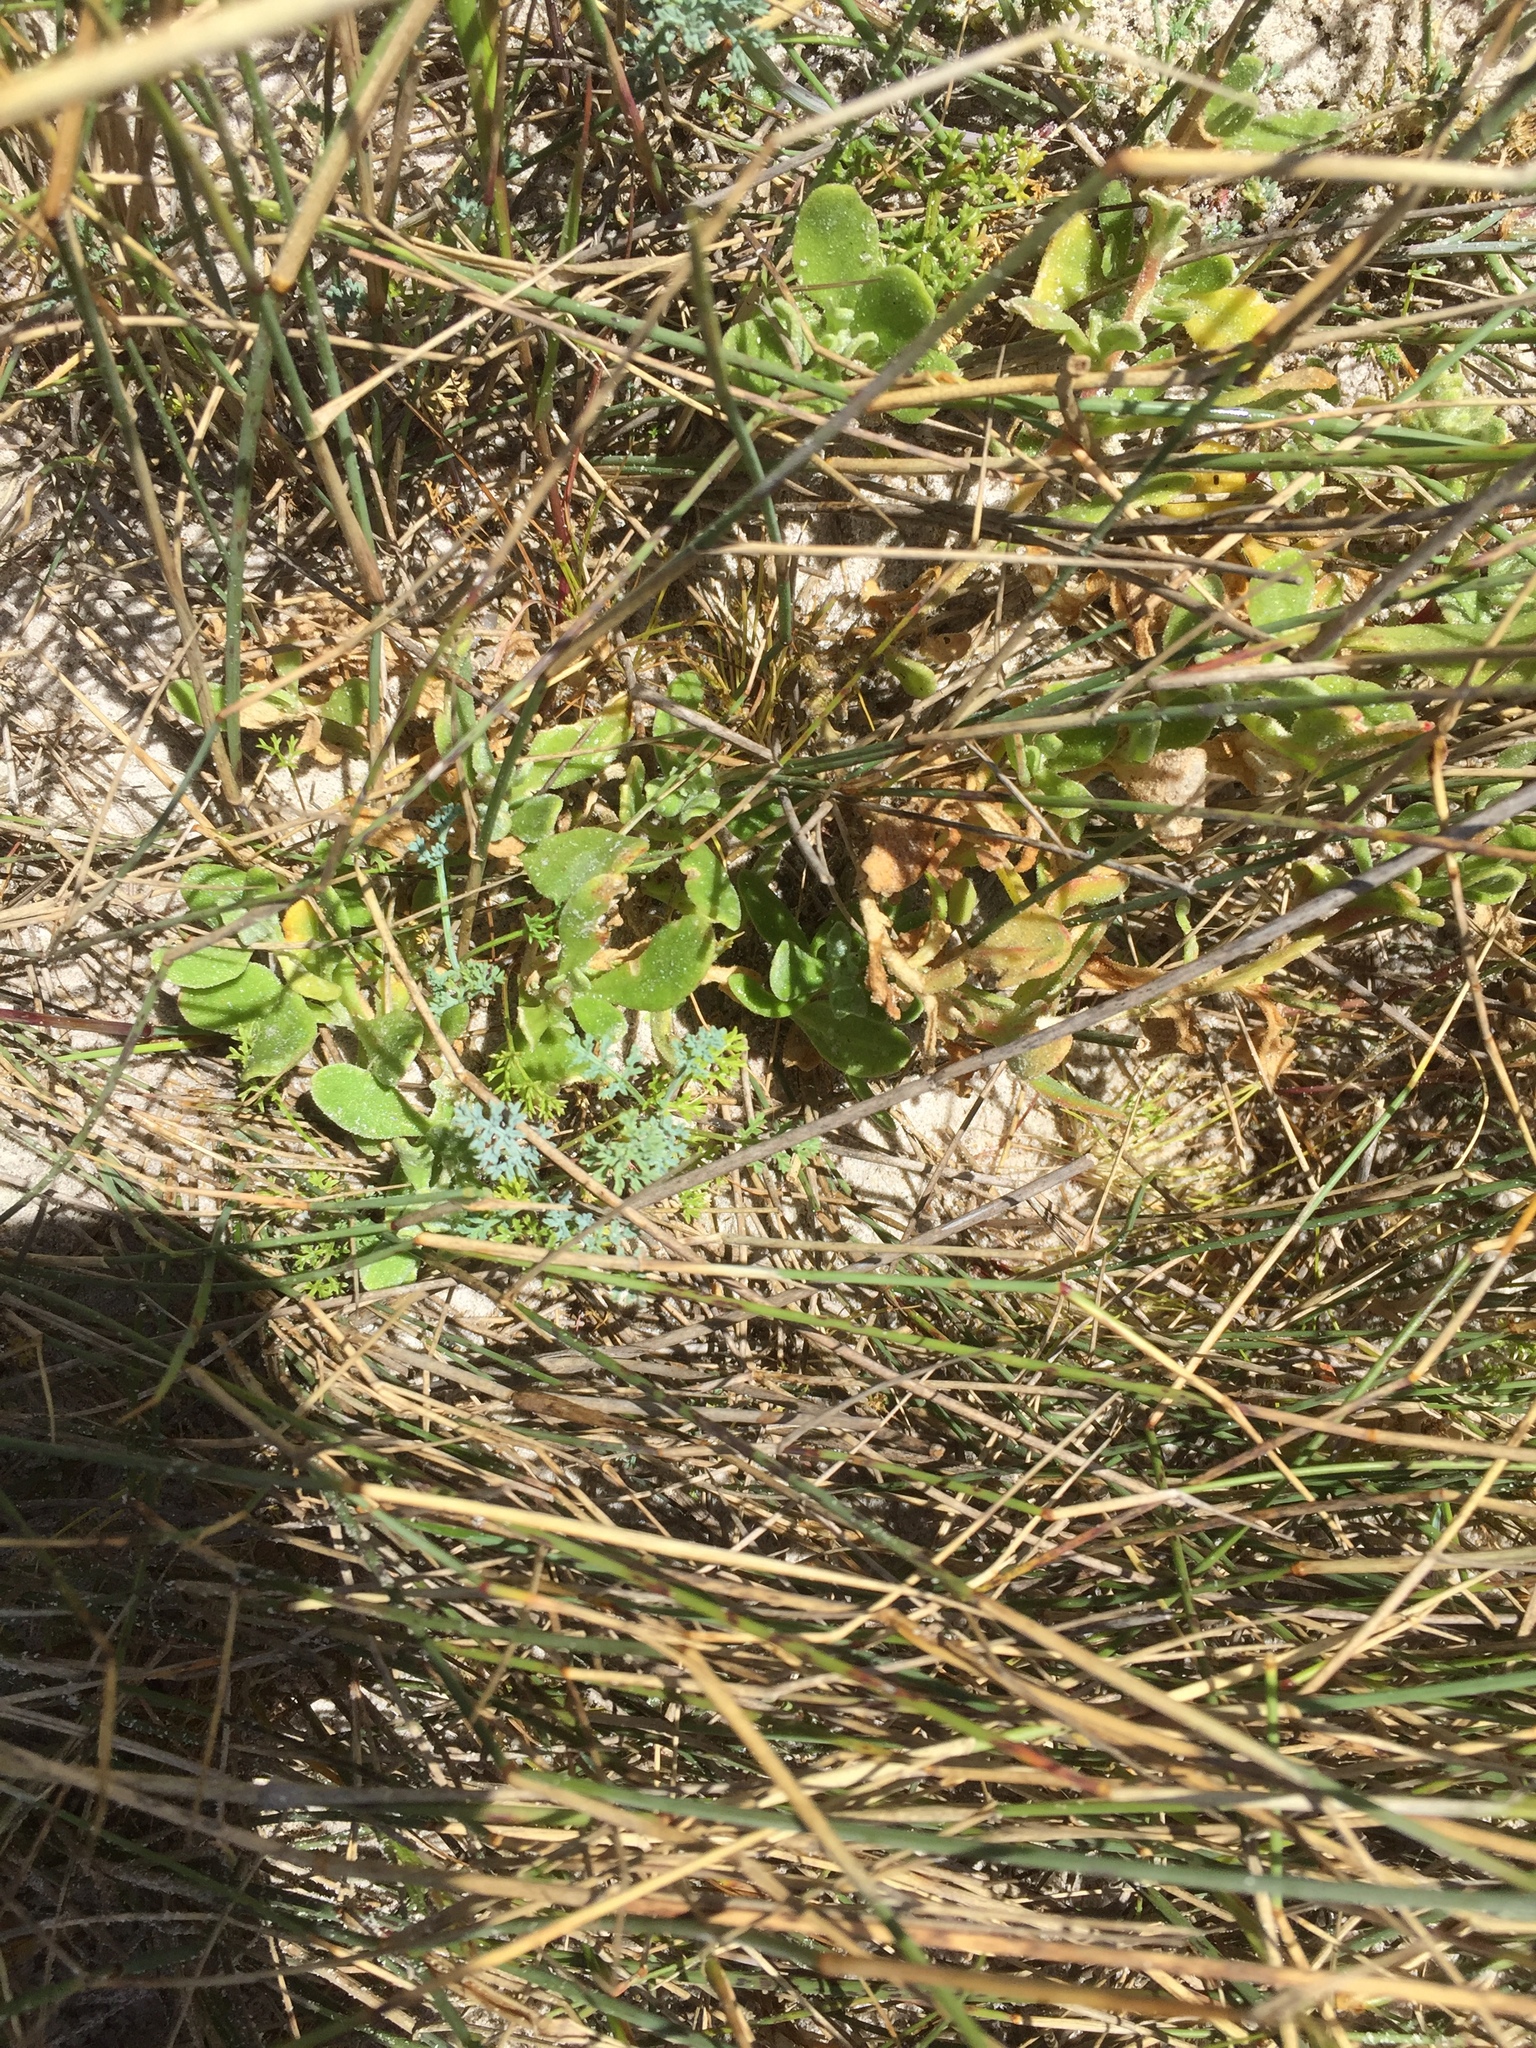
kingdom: Plantae
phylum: Tracheophyta
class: Magnoliopsida
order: Caryophyllales
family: Aizoaceae
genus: Tetragonia
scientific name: Tetragonia decumbens
